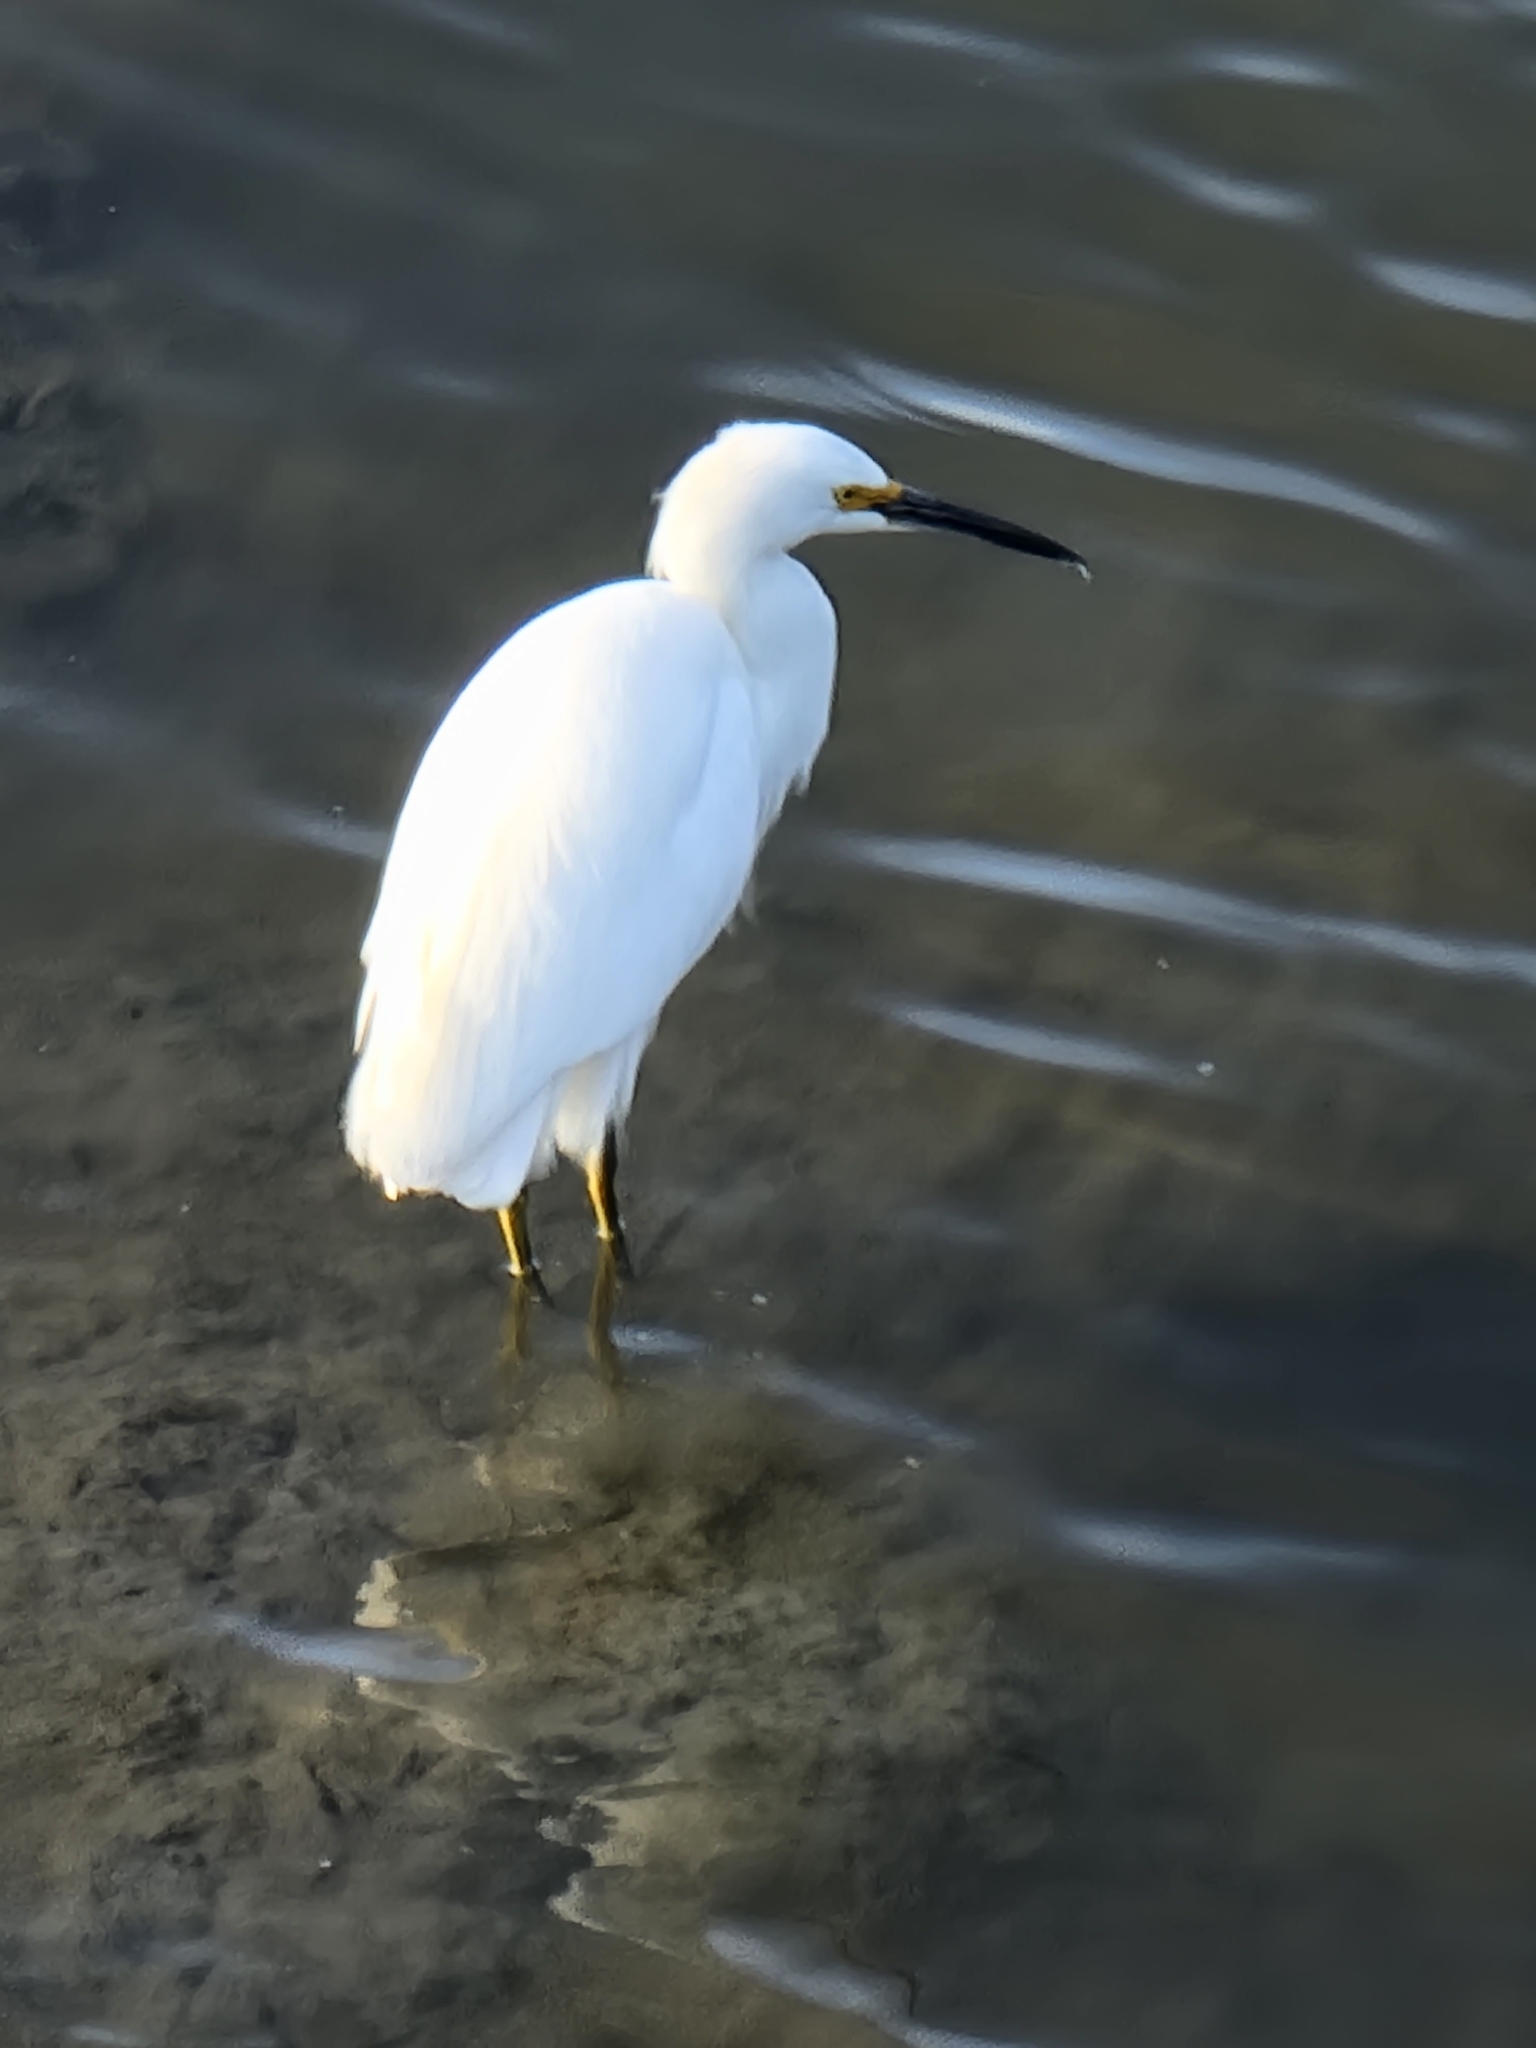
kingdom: Animalia
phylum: Chordata
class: Aves
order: Pelecaniformes
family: Ardeidae
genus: Egretta
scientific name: Egretta thula
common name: Snowy egret
